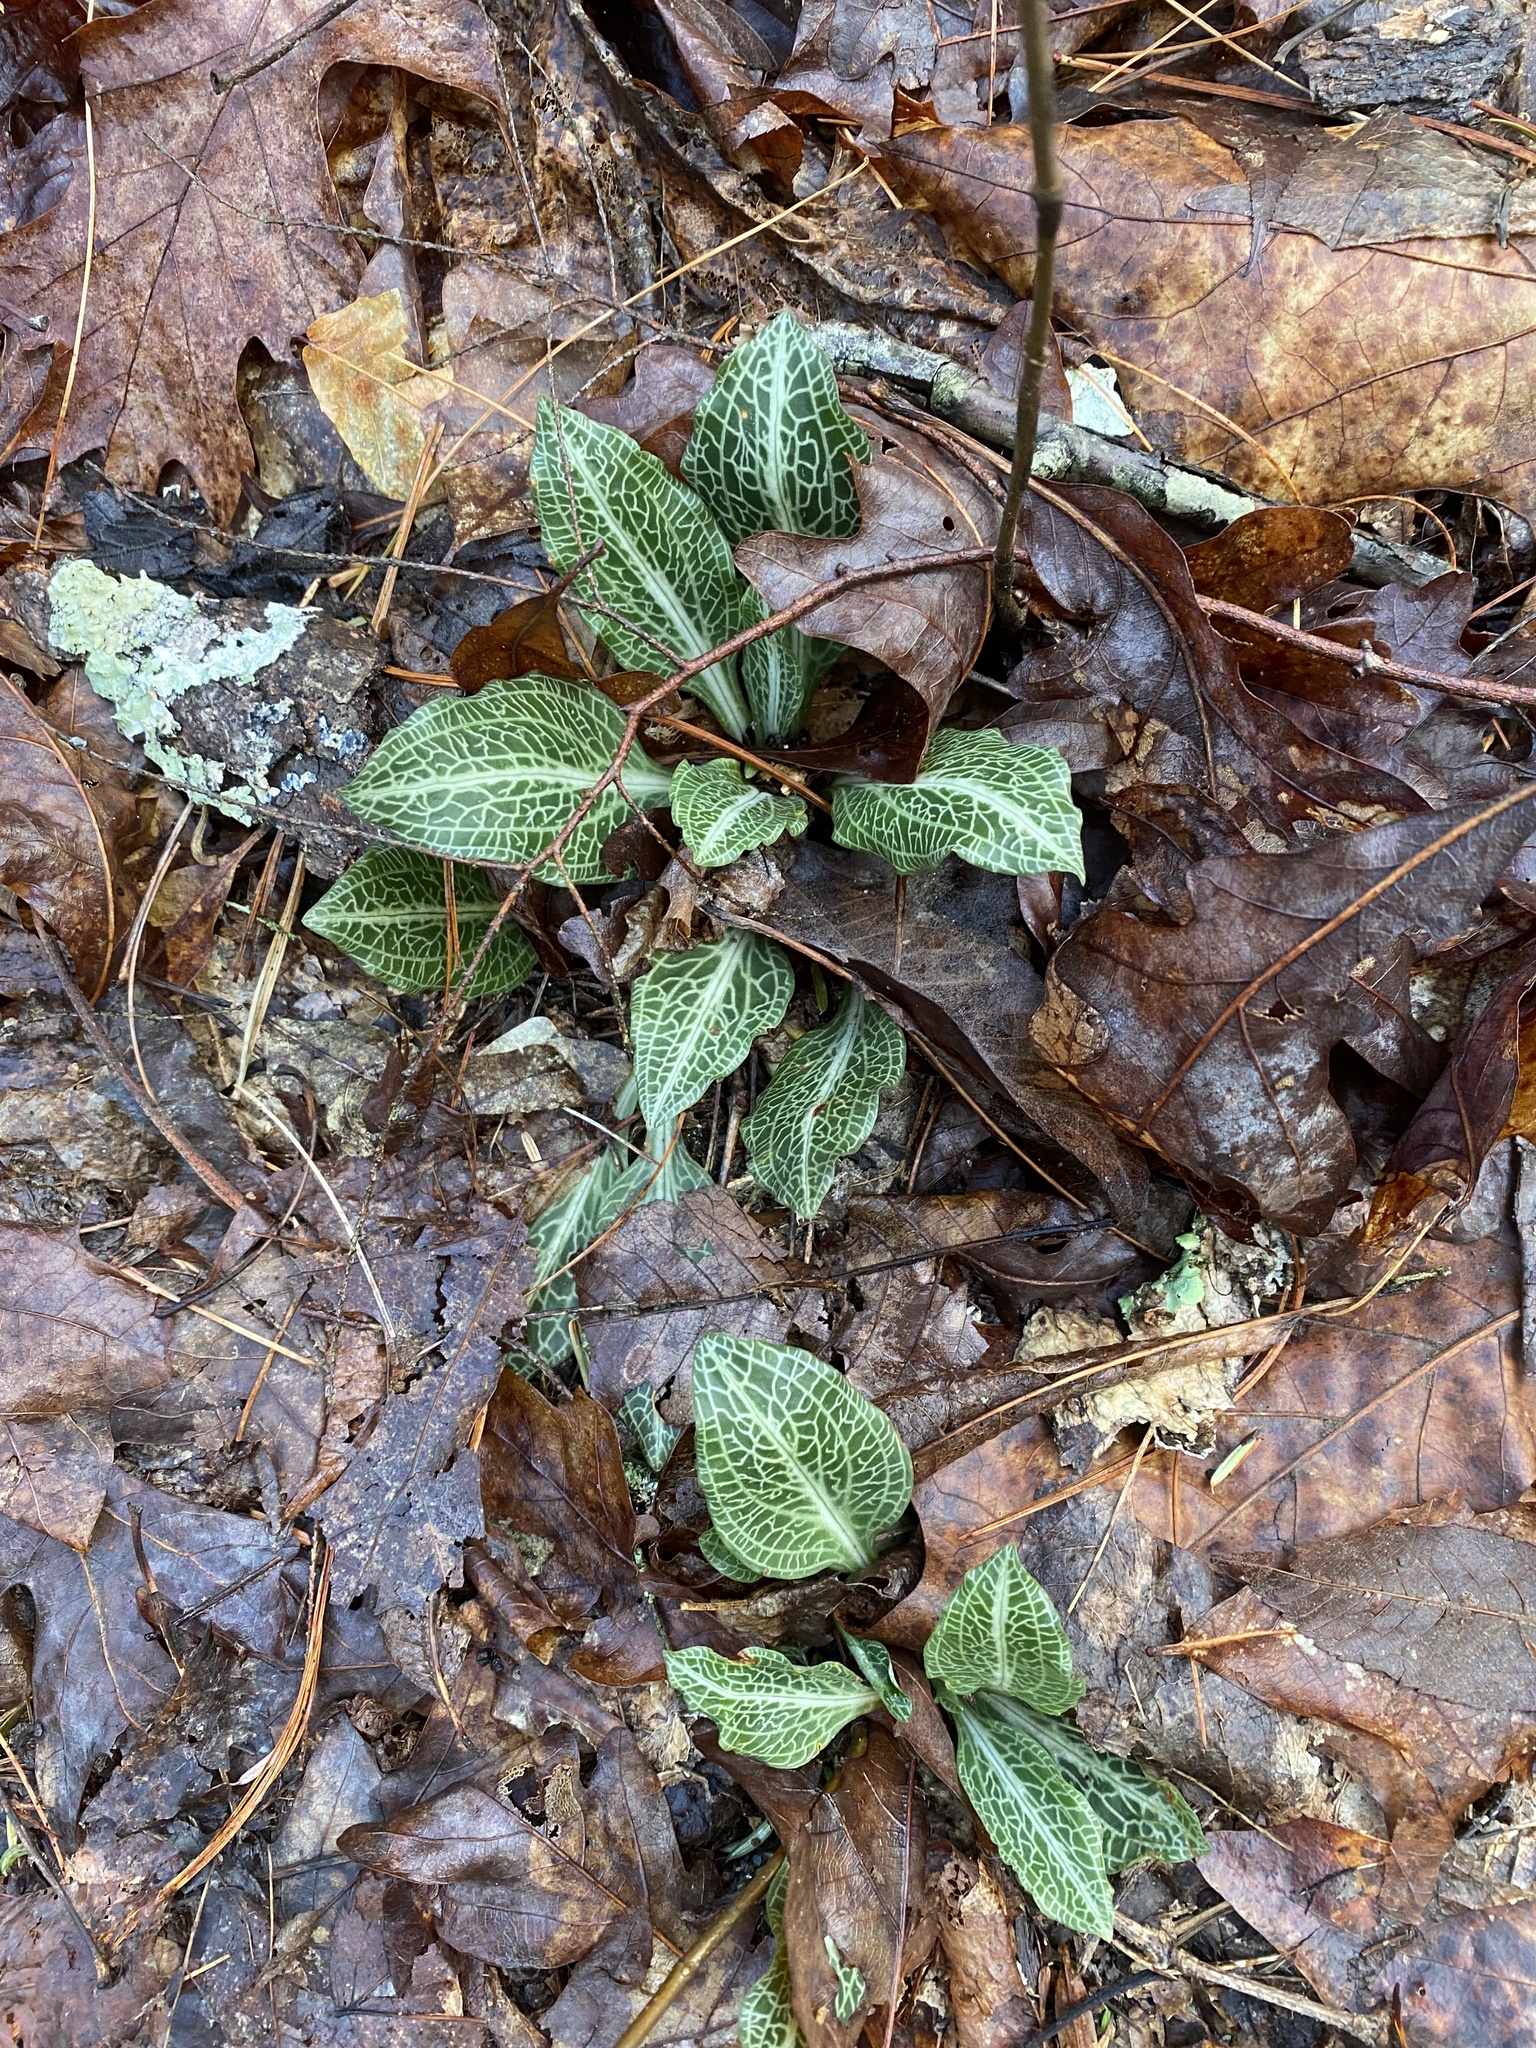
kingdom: Plantae
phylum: Tracheophyta
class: Liliopsida
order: Asparagales
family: Orchidaceae
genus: Goodyera
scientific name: Goodyera pubescens
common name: Downy rattlesnake-plantain
